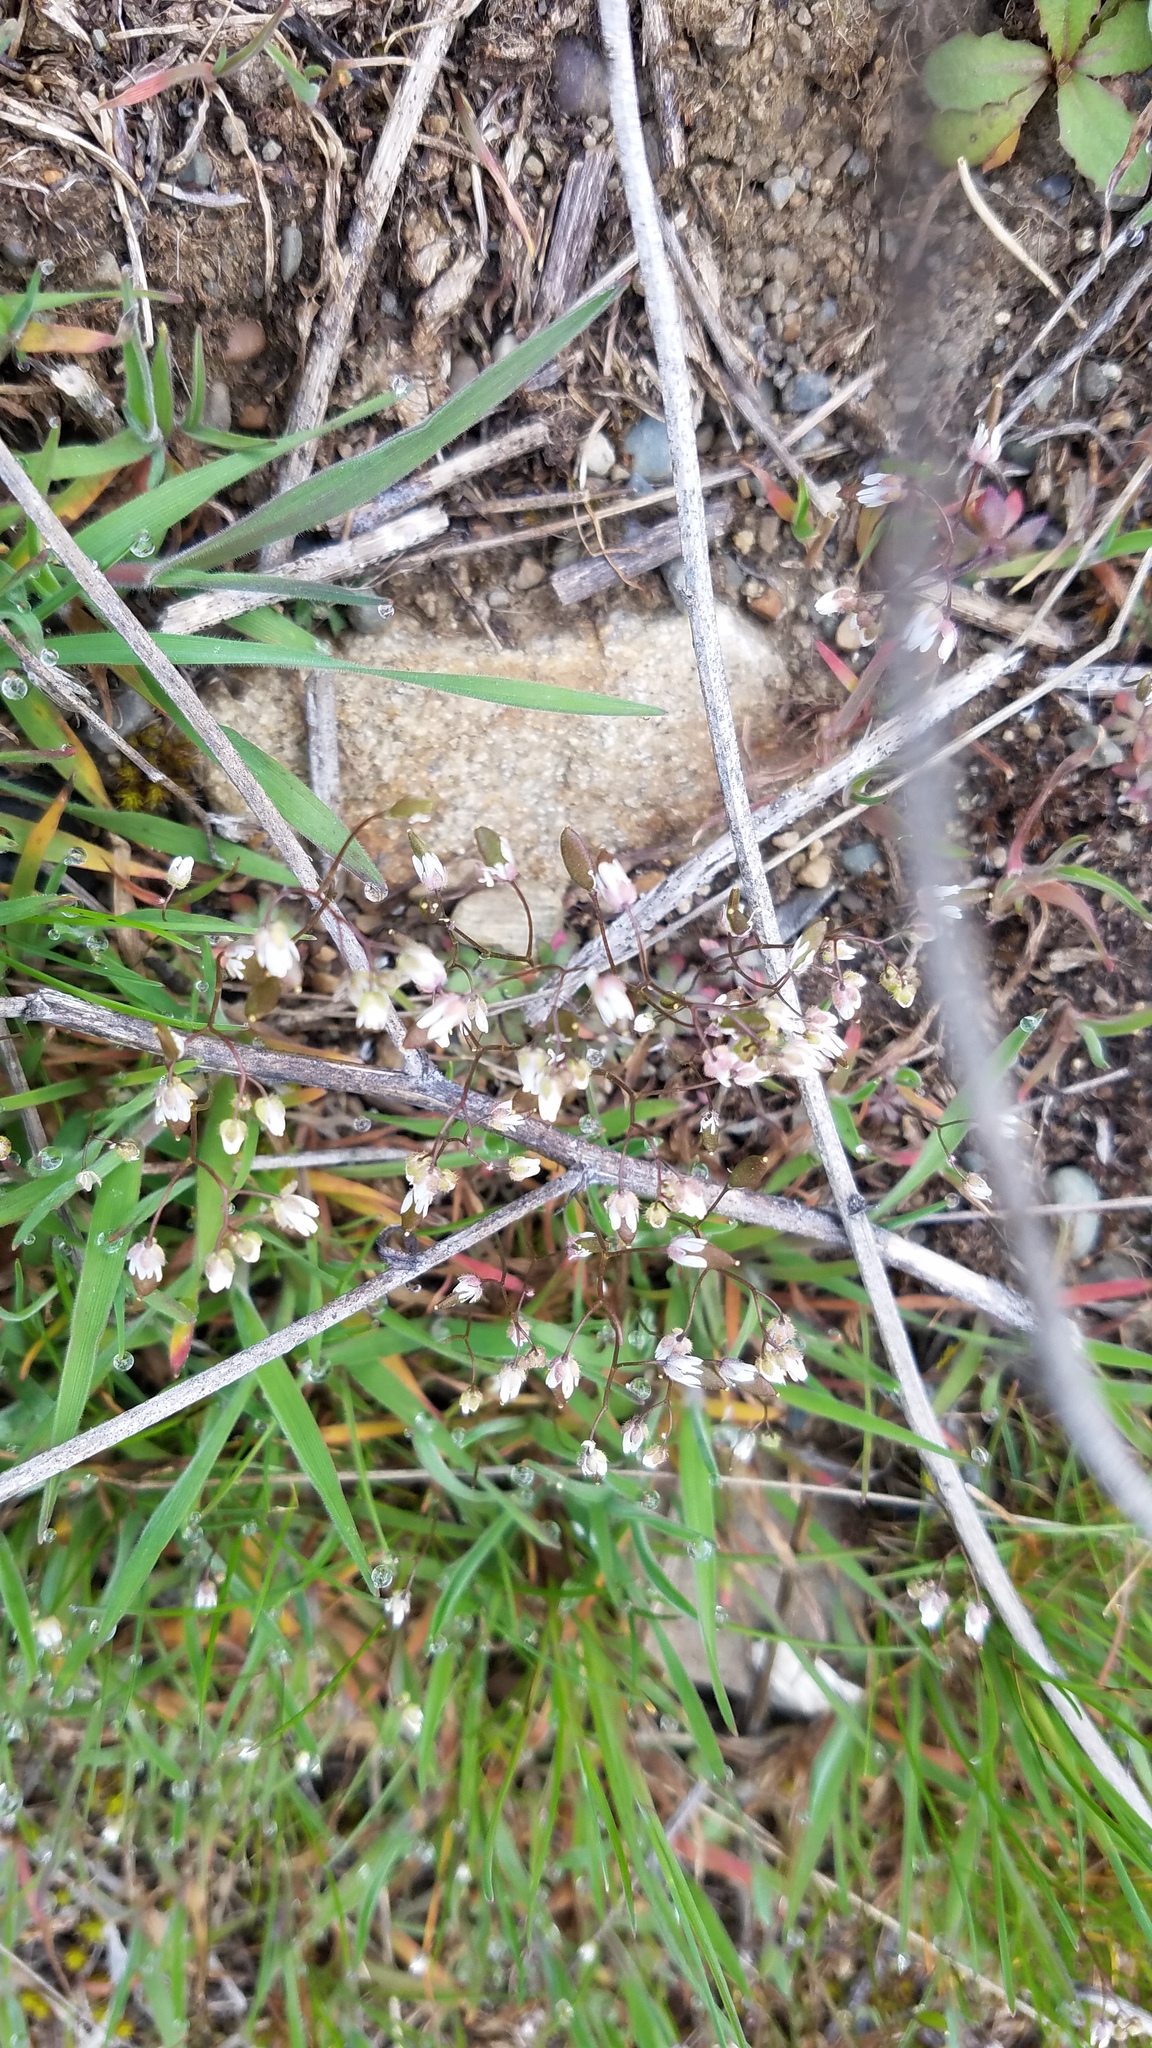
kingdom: Plantae
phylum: Tracheophyta
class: Magnoliopsida
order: Brassicales
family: Brassicaceae
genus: Draba
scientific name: Draba verna
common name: Spring draba
